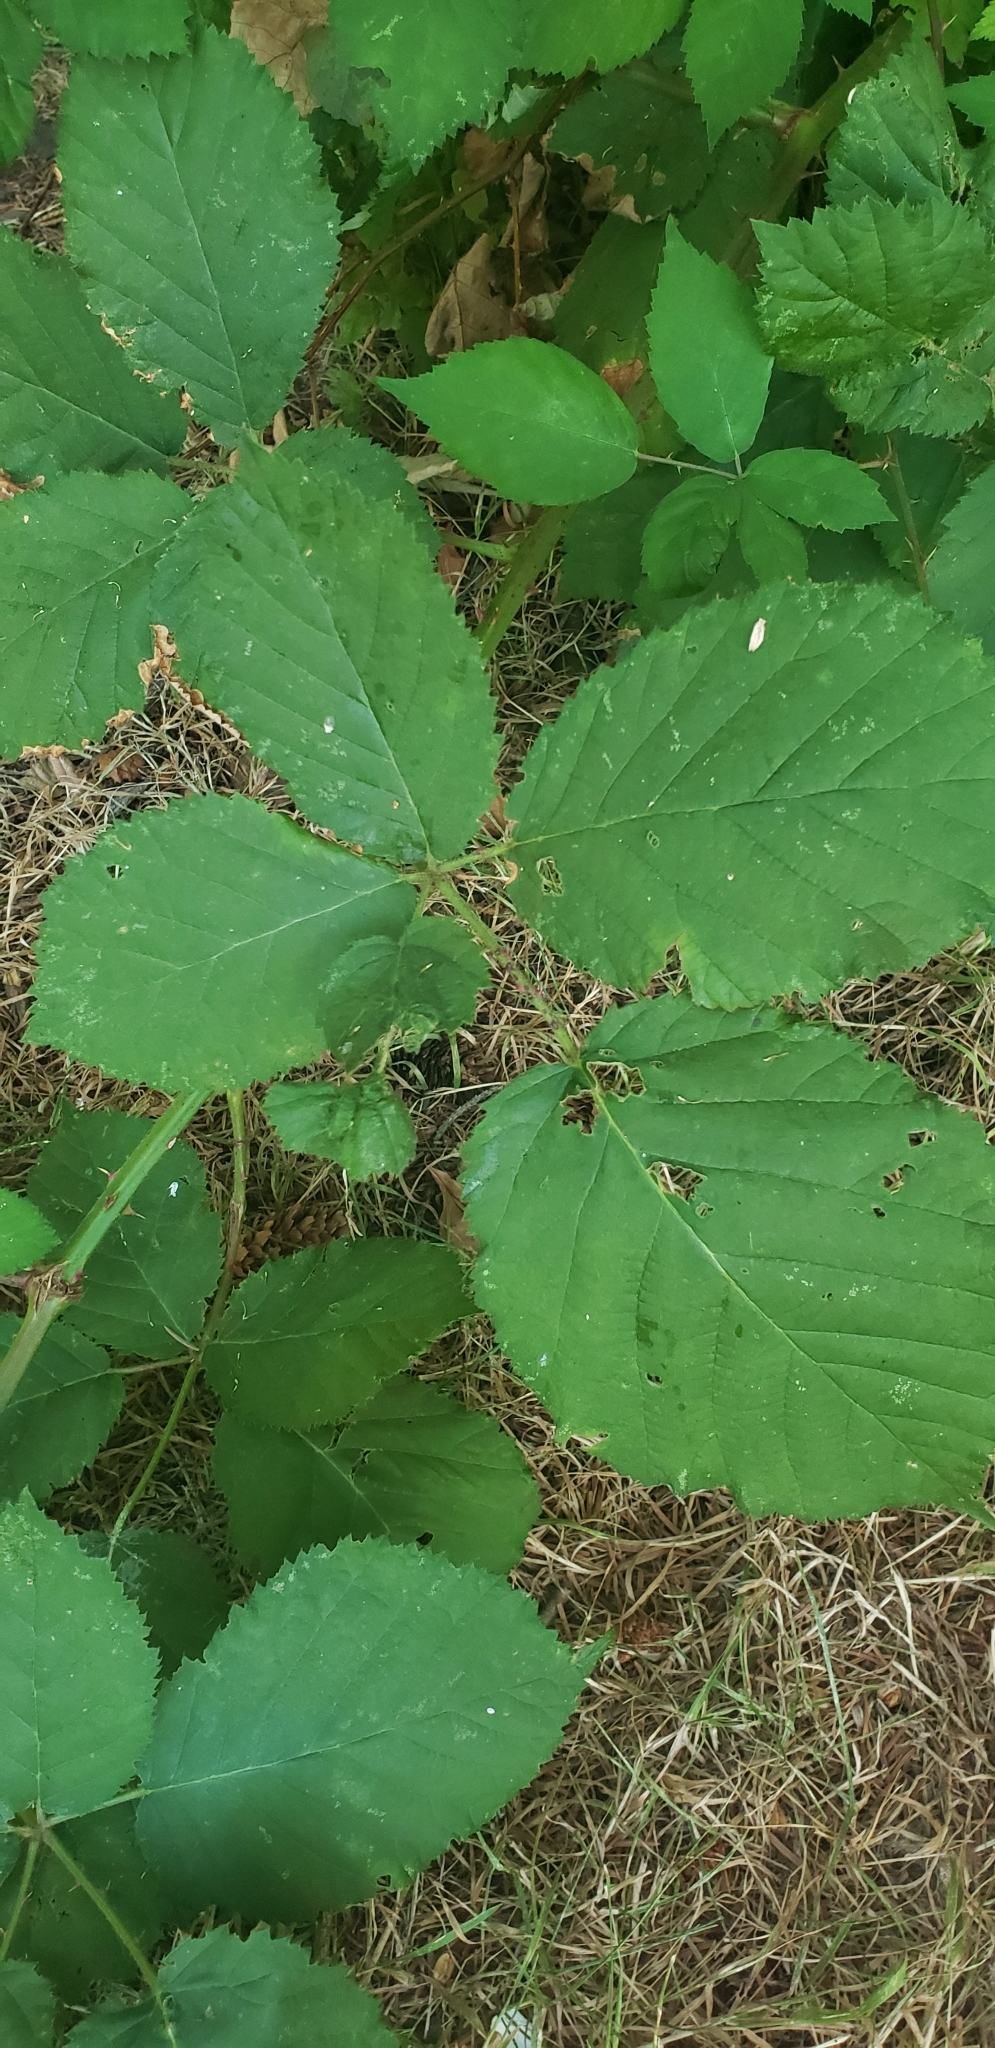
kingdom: Plantae
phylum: Tracheophyta
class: Magnoliopsida
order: Rosales
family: Rosaceae
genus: Rubus
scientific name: Rubus armeniacus
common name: Himalayan blackberry
